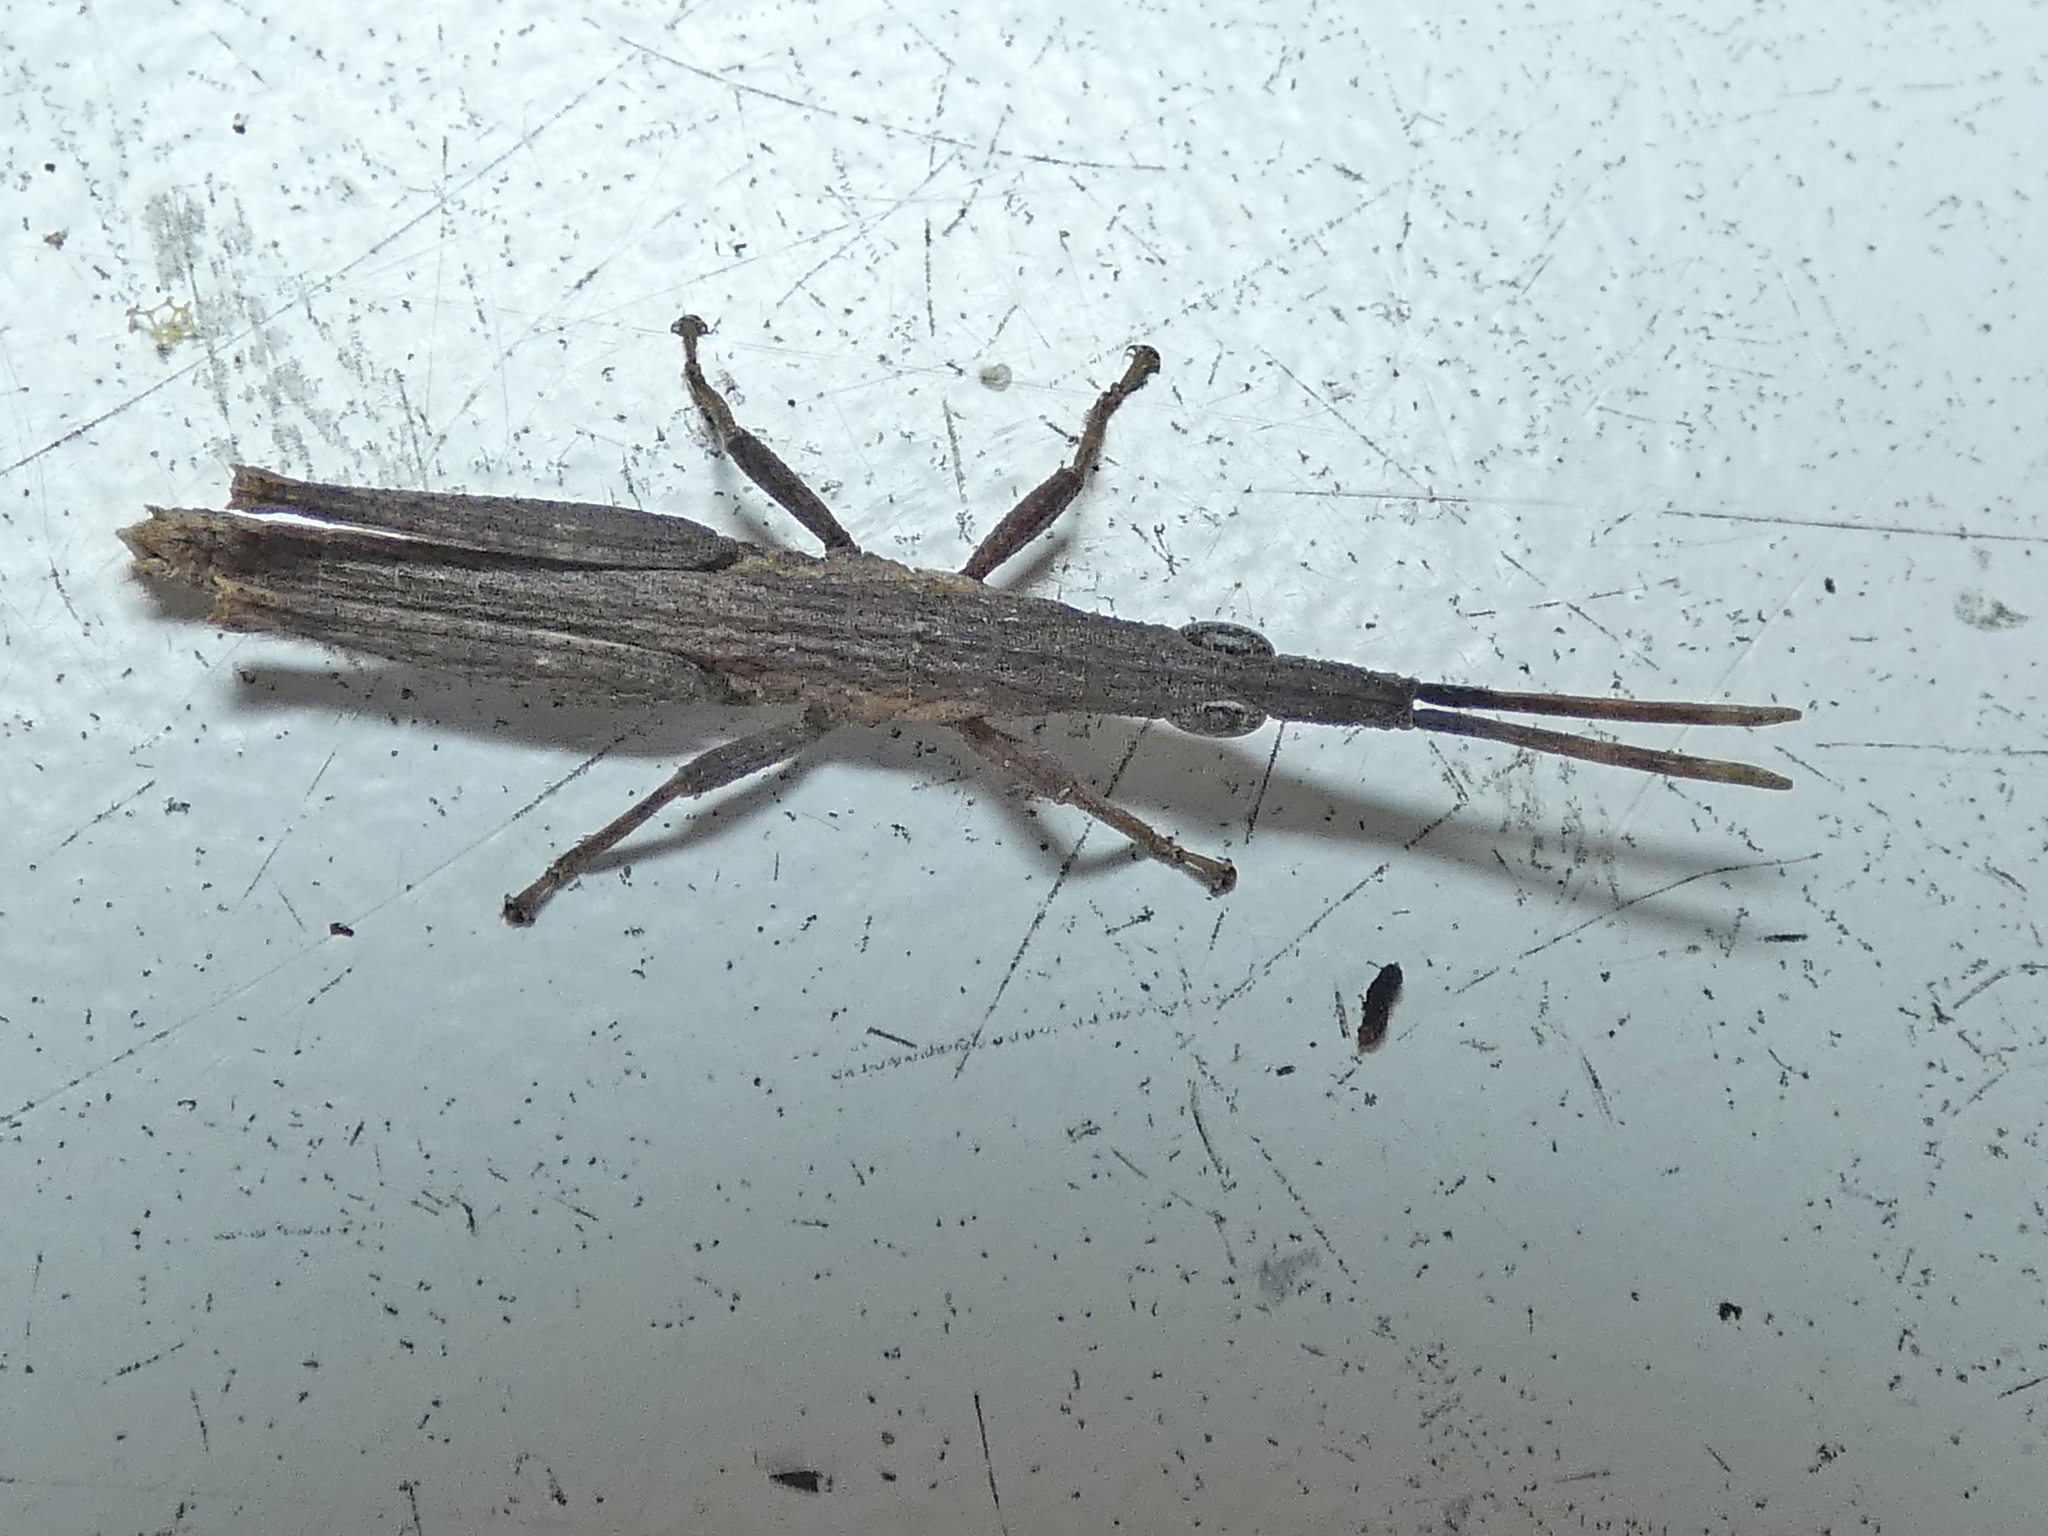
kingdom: Animalia
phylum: Arthropoda
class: Insecta
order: Orthoptera
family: Pyrgomorphidae
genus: Algete
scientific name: Algete brunneri
